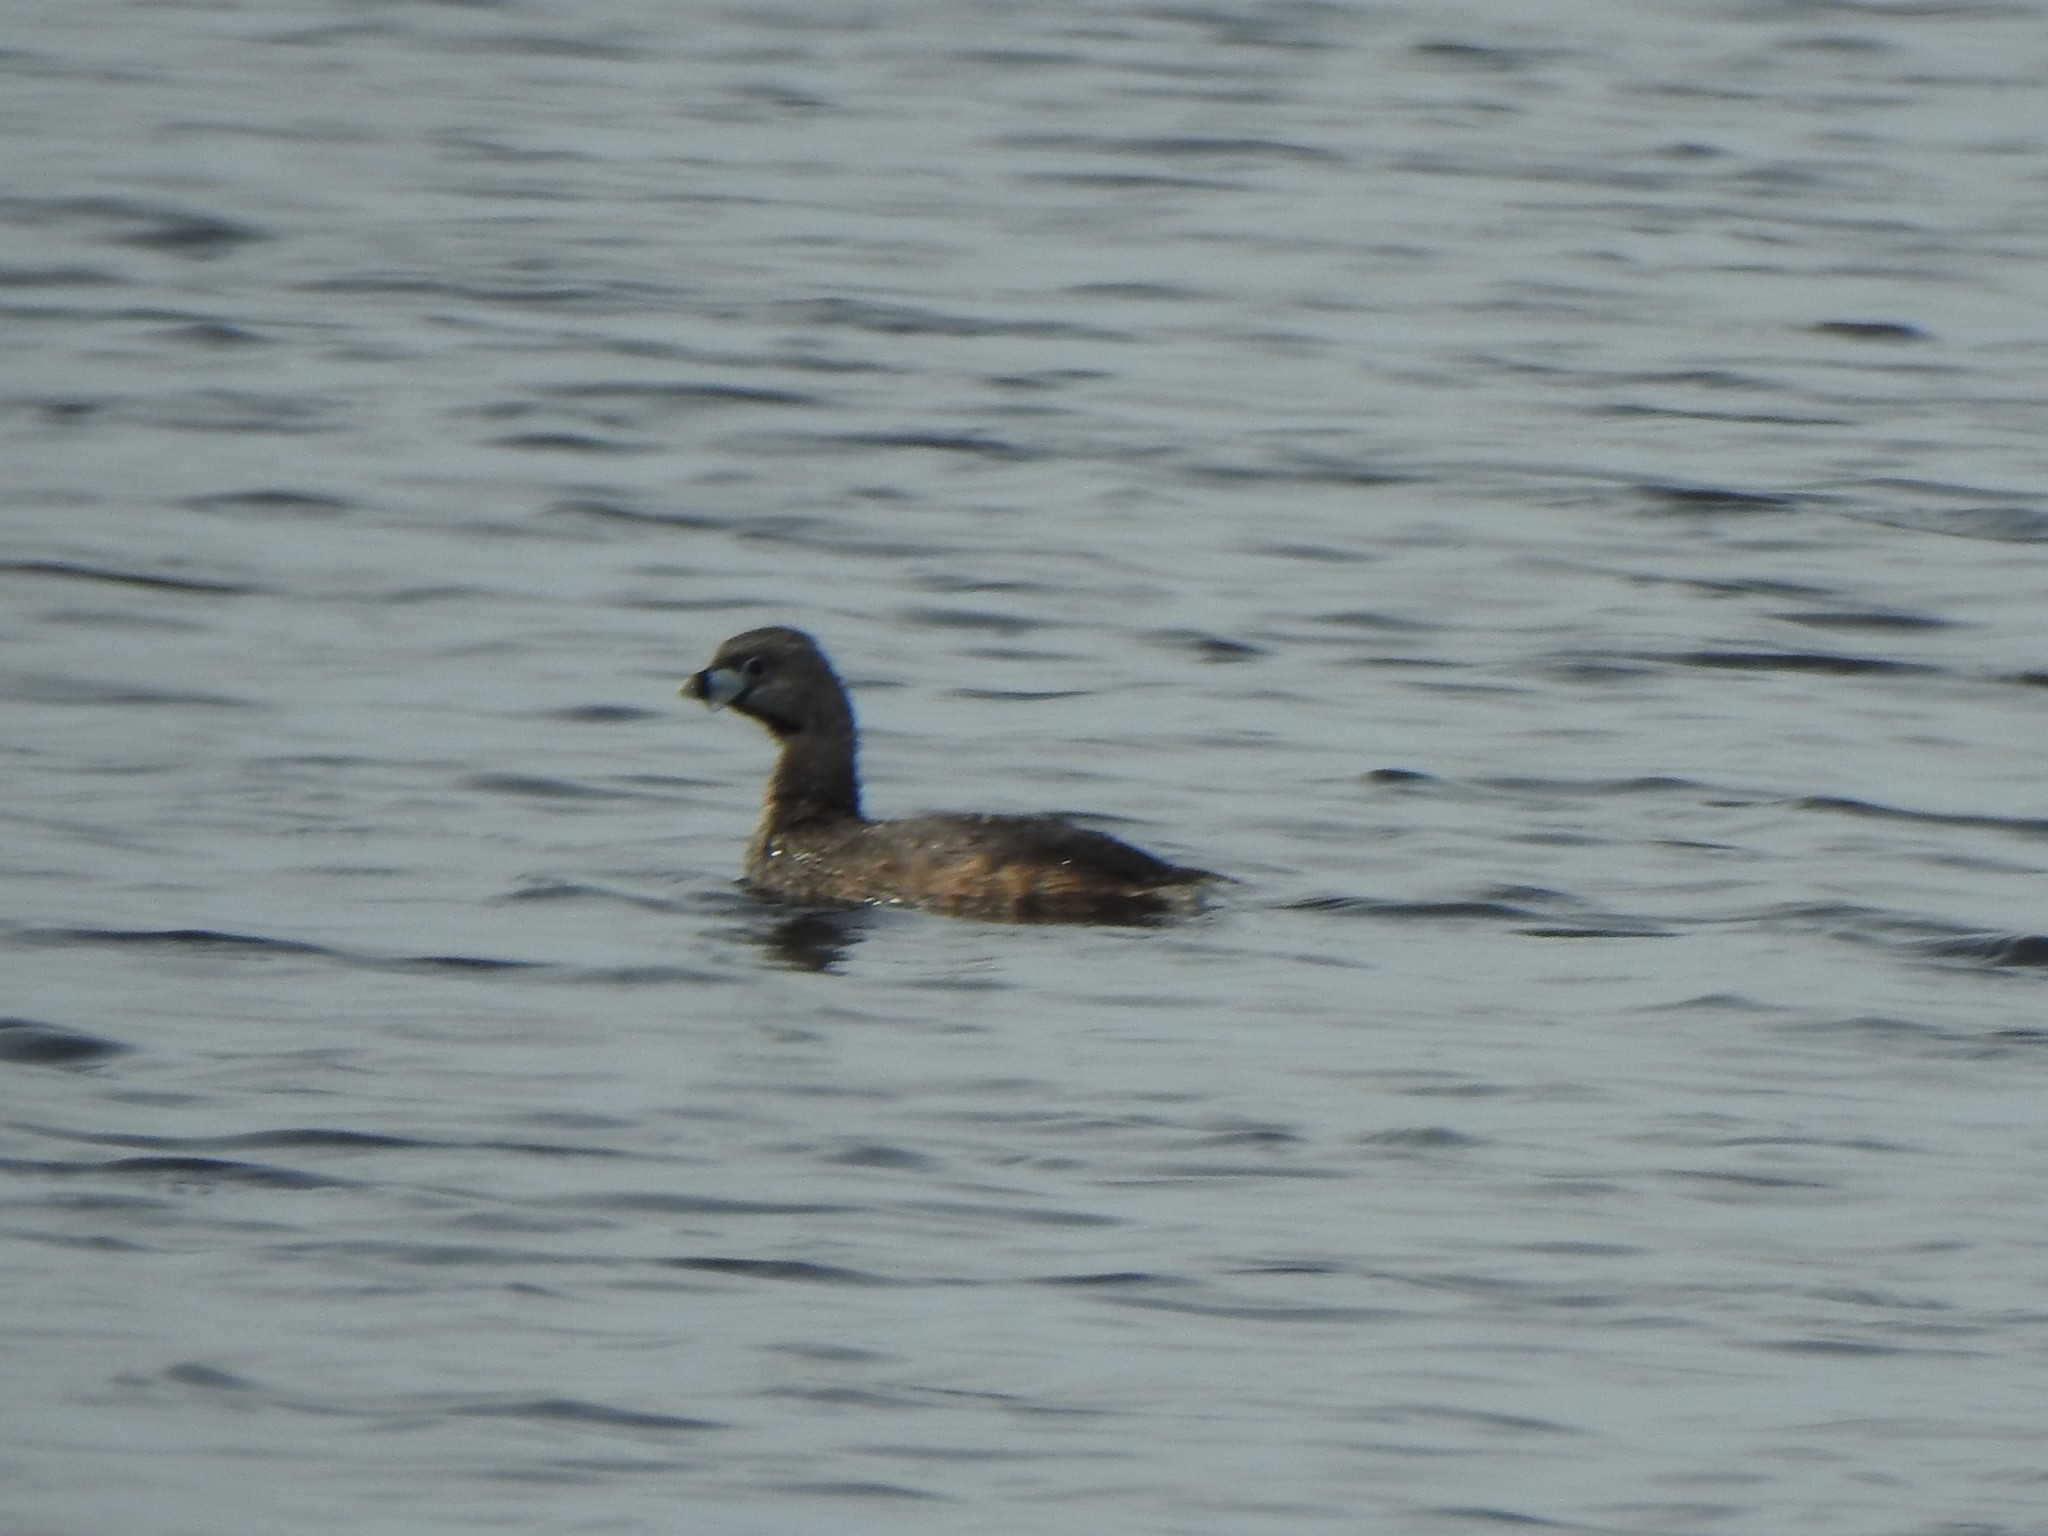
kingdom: Animalia
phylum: Chordata
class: Aves
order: Podicipediformes
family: Podicipedidae
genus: Podilymbus
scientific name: Podilymbus podiceps
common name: Pied-billed grebe
